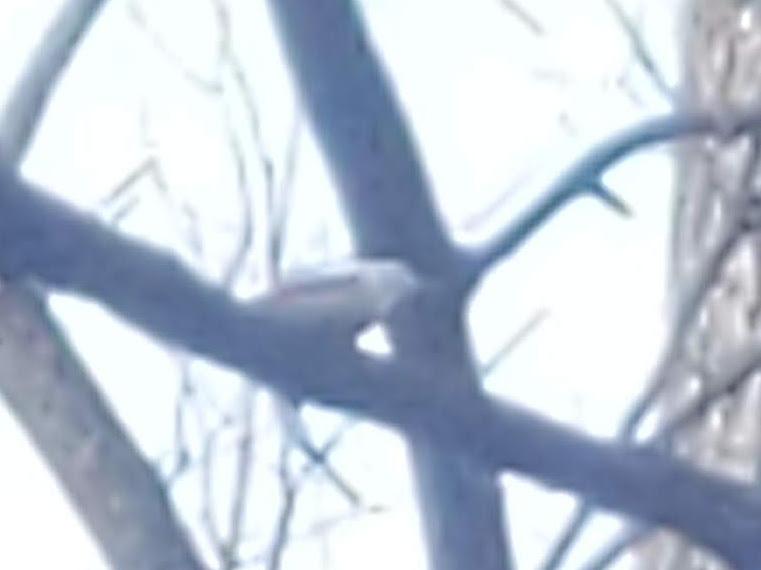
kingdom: Animalia
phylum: Chordata
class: Aves
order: Passeriformes
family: Sittidae
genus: Sitta
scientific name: Sitta carolinensis
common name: White-breasted nuthatch
